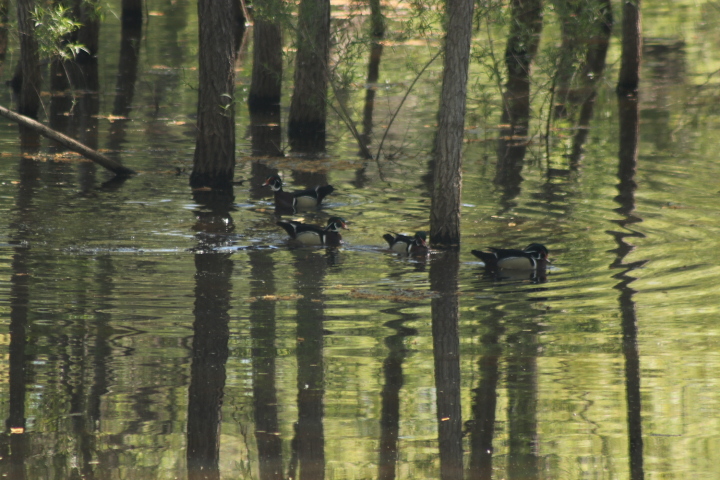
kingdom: Animalia
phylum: Chordata
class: Aves
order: Anseriformes
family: Anatidae
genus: Aix
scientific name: Aix sponsa
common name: Wood duck
